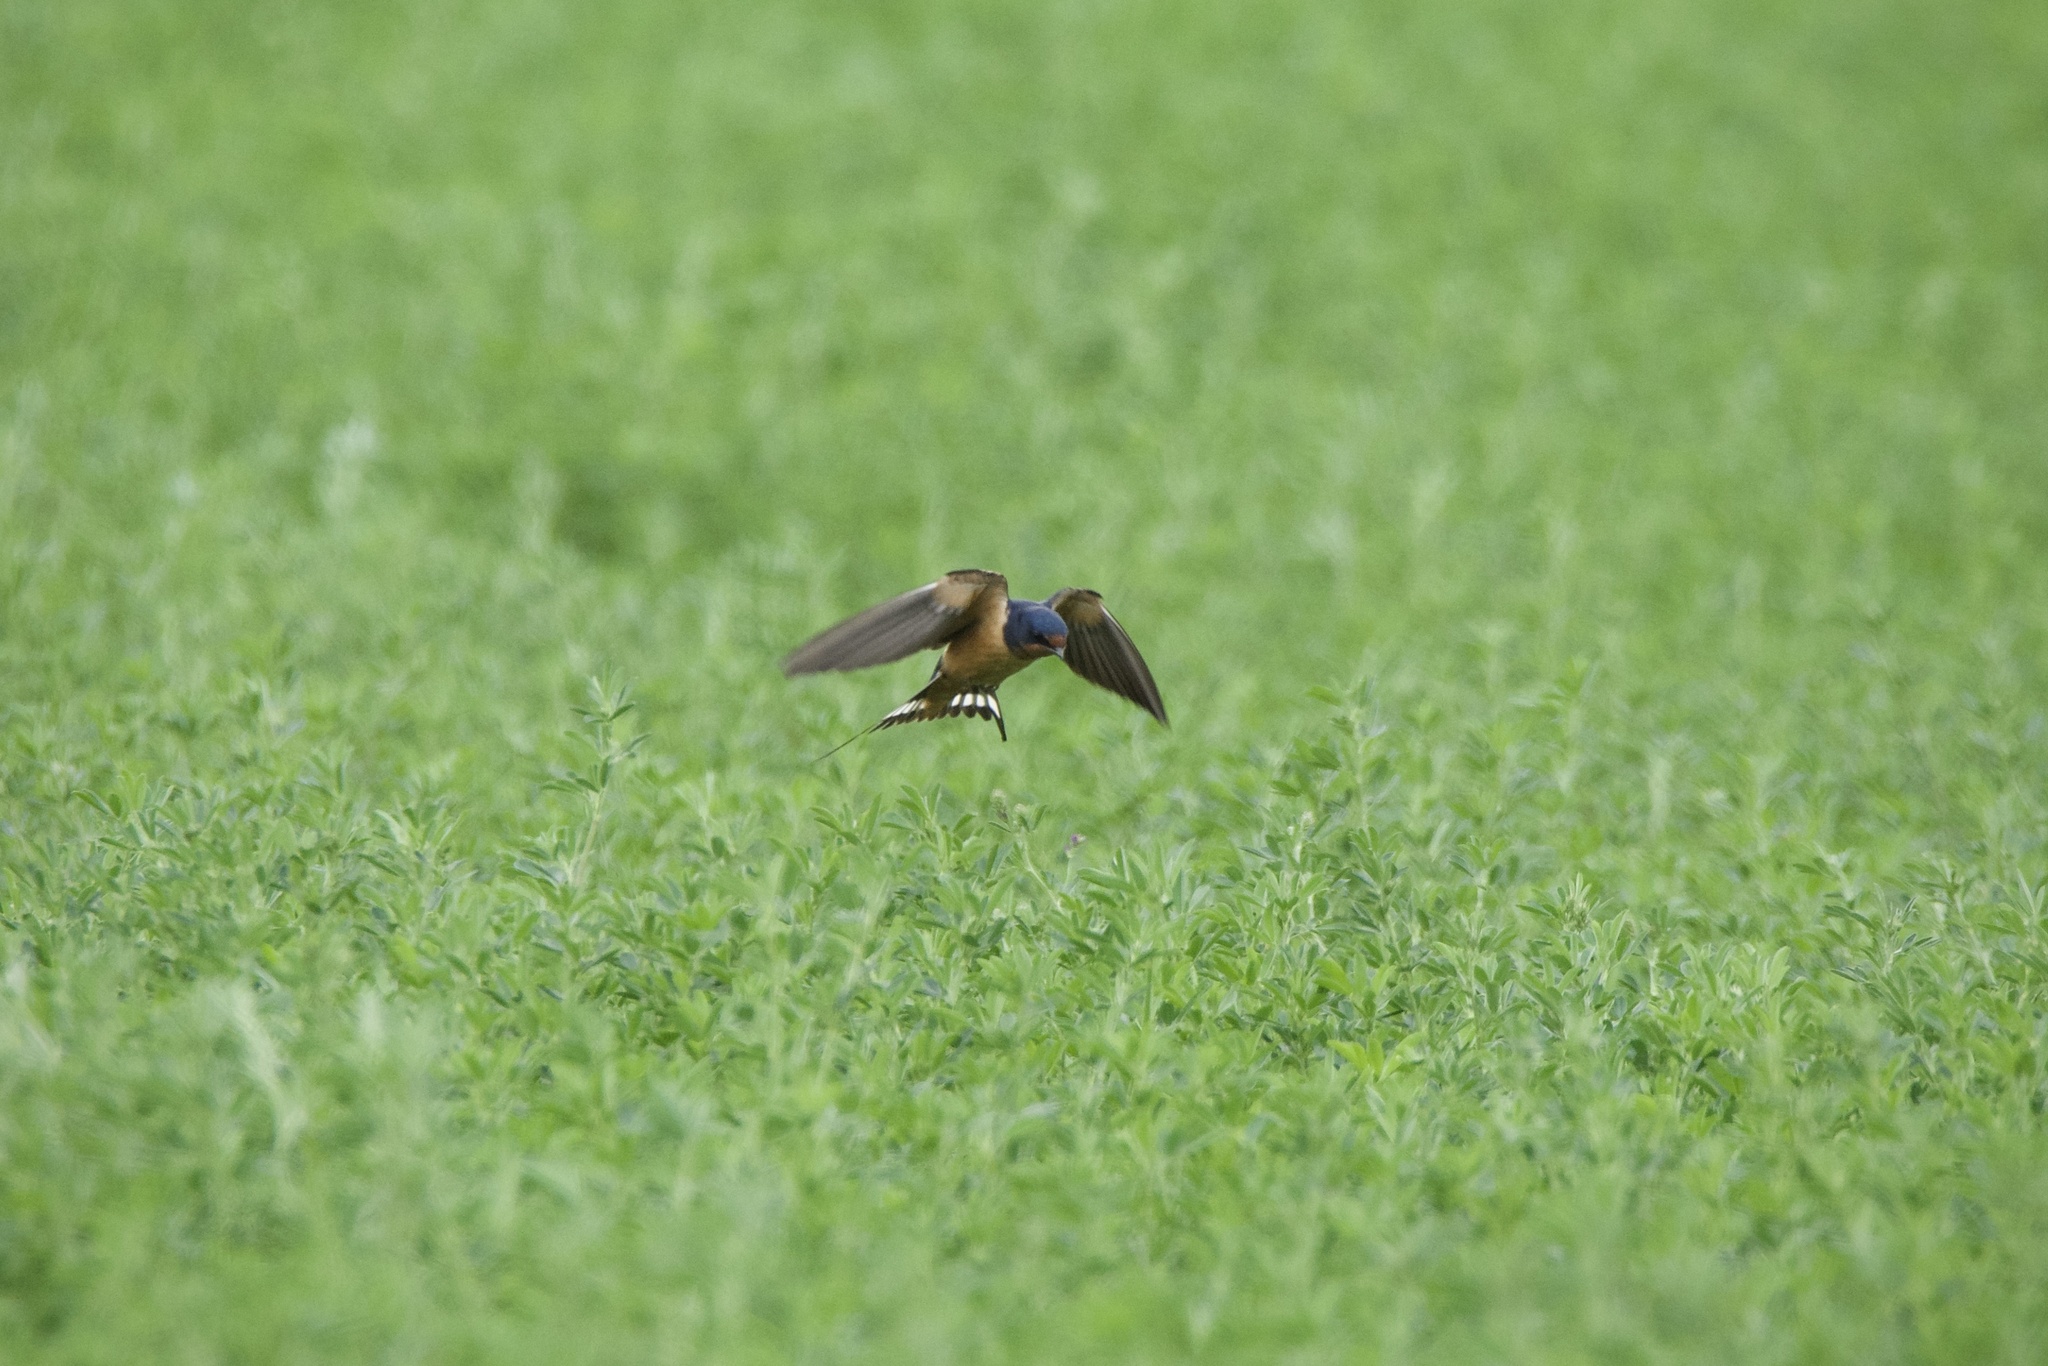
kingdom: Animalia
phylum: Chordata
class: Aves
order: Passeriformes
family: Hirundinidae
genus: Hirundo
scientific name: Hirundo rustica
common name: Barn swallow
